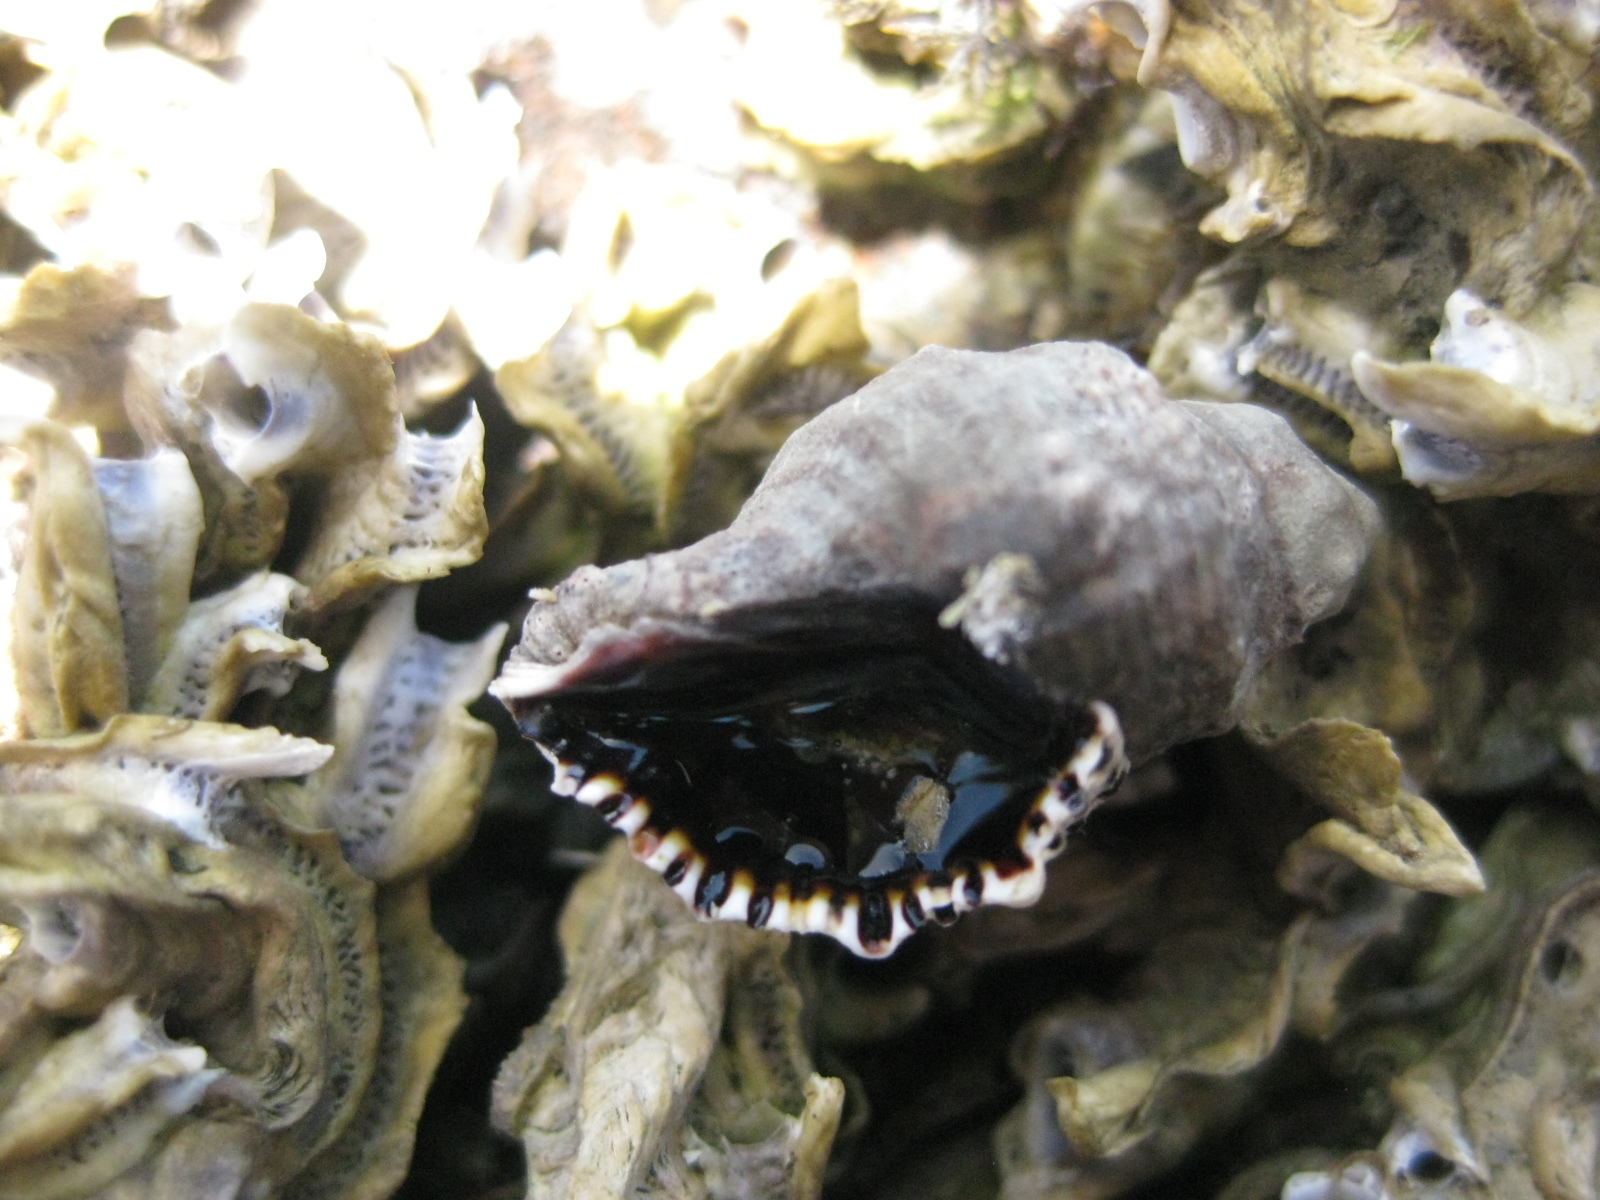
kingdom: Animalia
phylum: Mollusca
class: Gastropoda
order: Neogastropoda
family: Muricidae
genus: Haustrum
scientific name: Haustrum scobina
